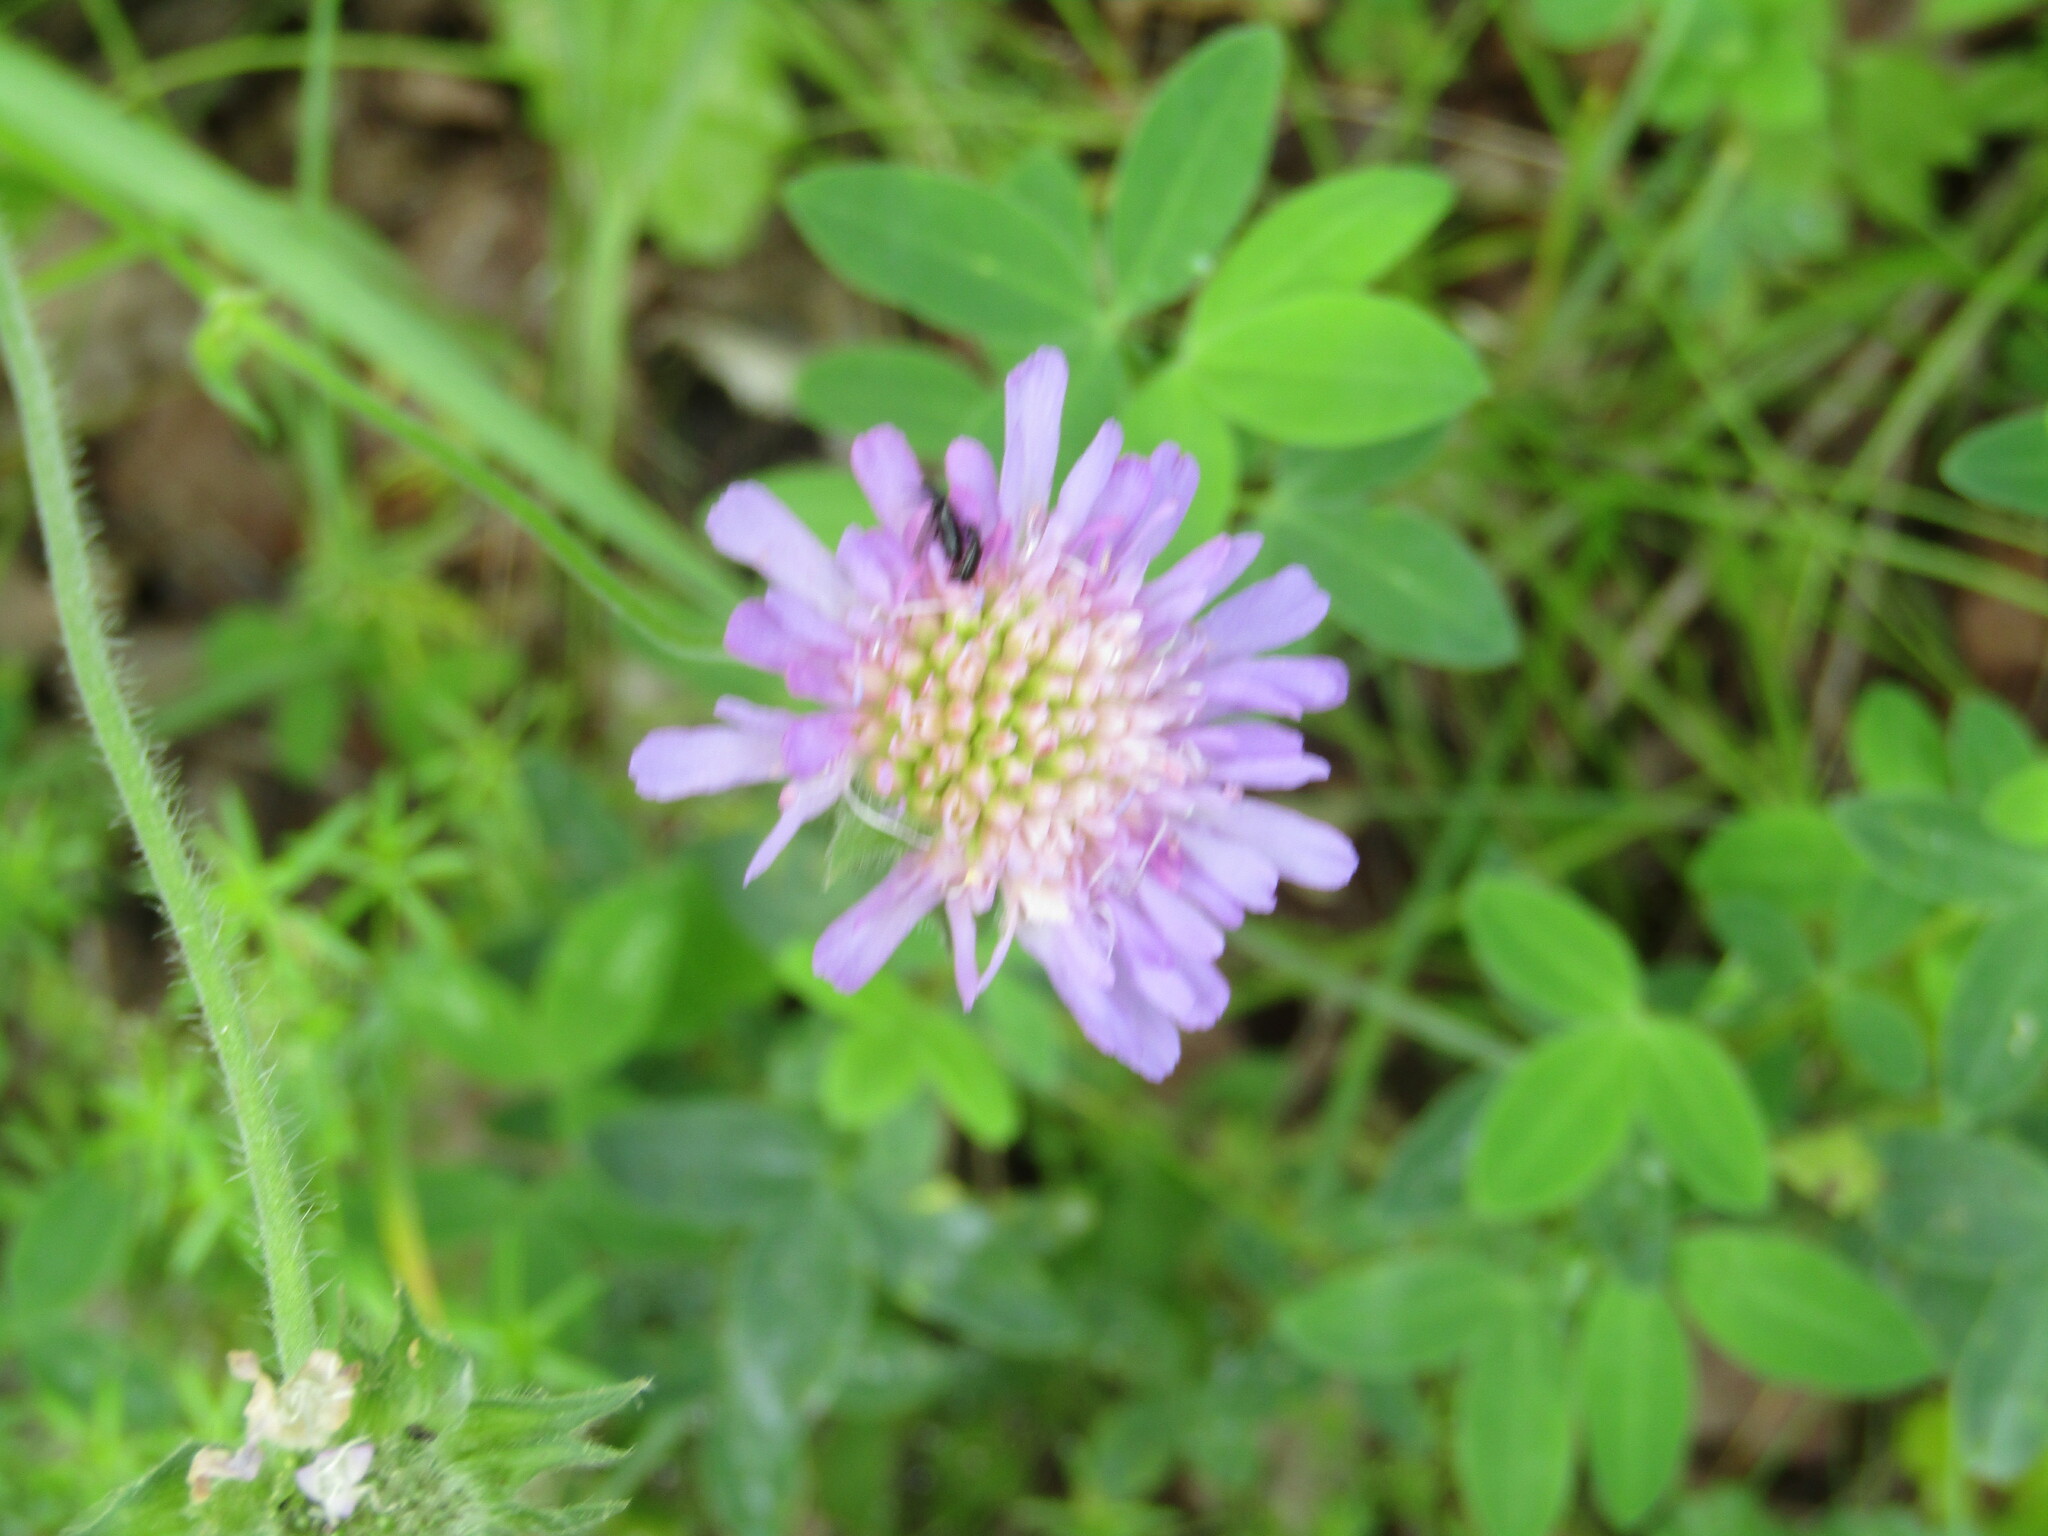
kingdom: Plantae
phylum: Tracheophyta
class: Magnoliopsida
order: Dipsacales
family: Caprifoliaceae
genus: Knautia
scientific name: Knautia arvensis
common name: Field scabiosa
